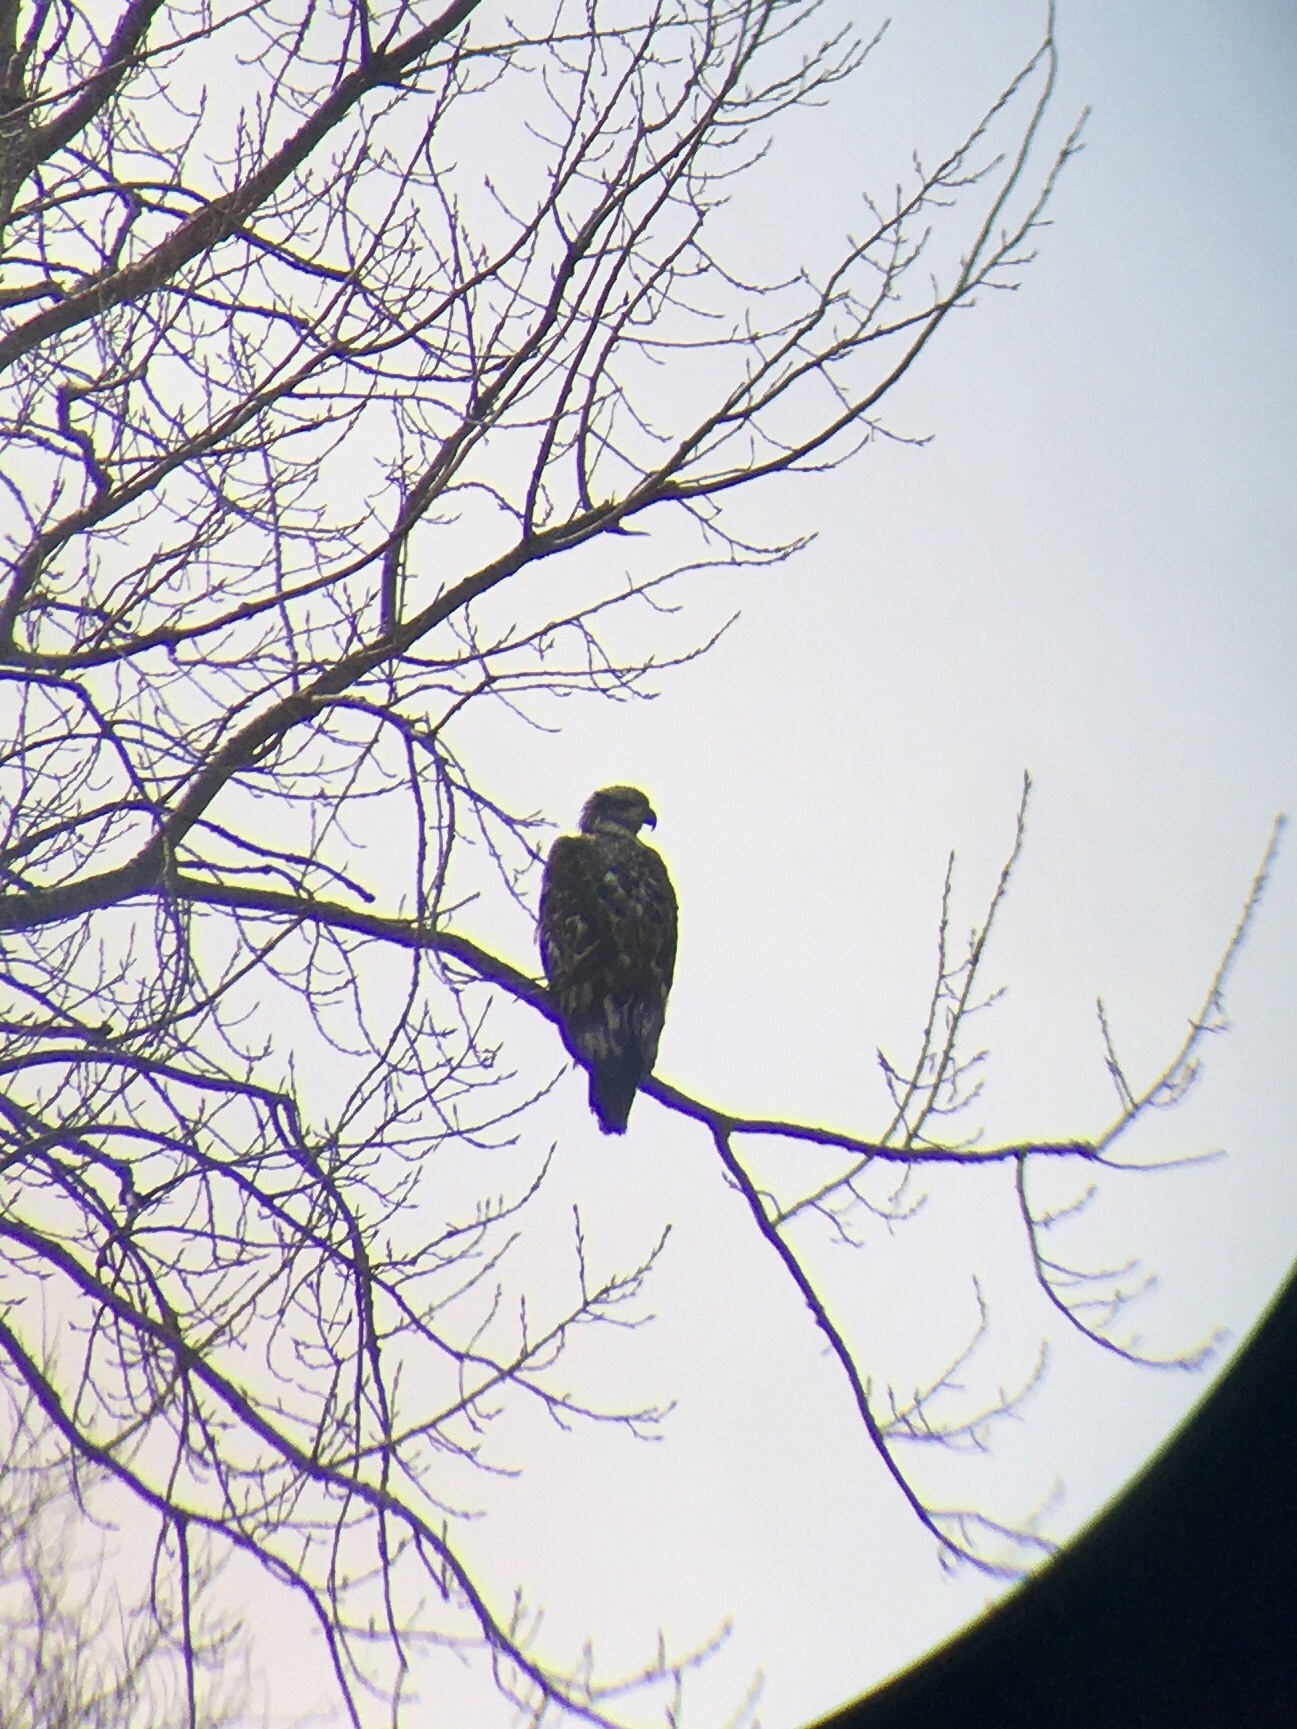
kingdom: Animalia
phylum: Chordata
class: Aves
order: Accipitriformes
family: Accipitridae
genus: Haliaeetus
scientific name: Haliaeetus leucocephalus
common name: Bald eagle
